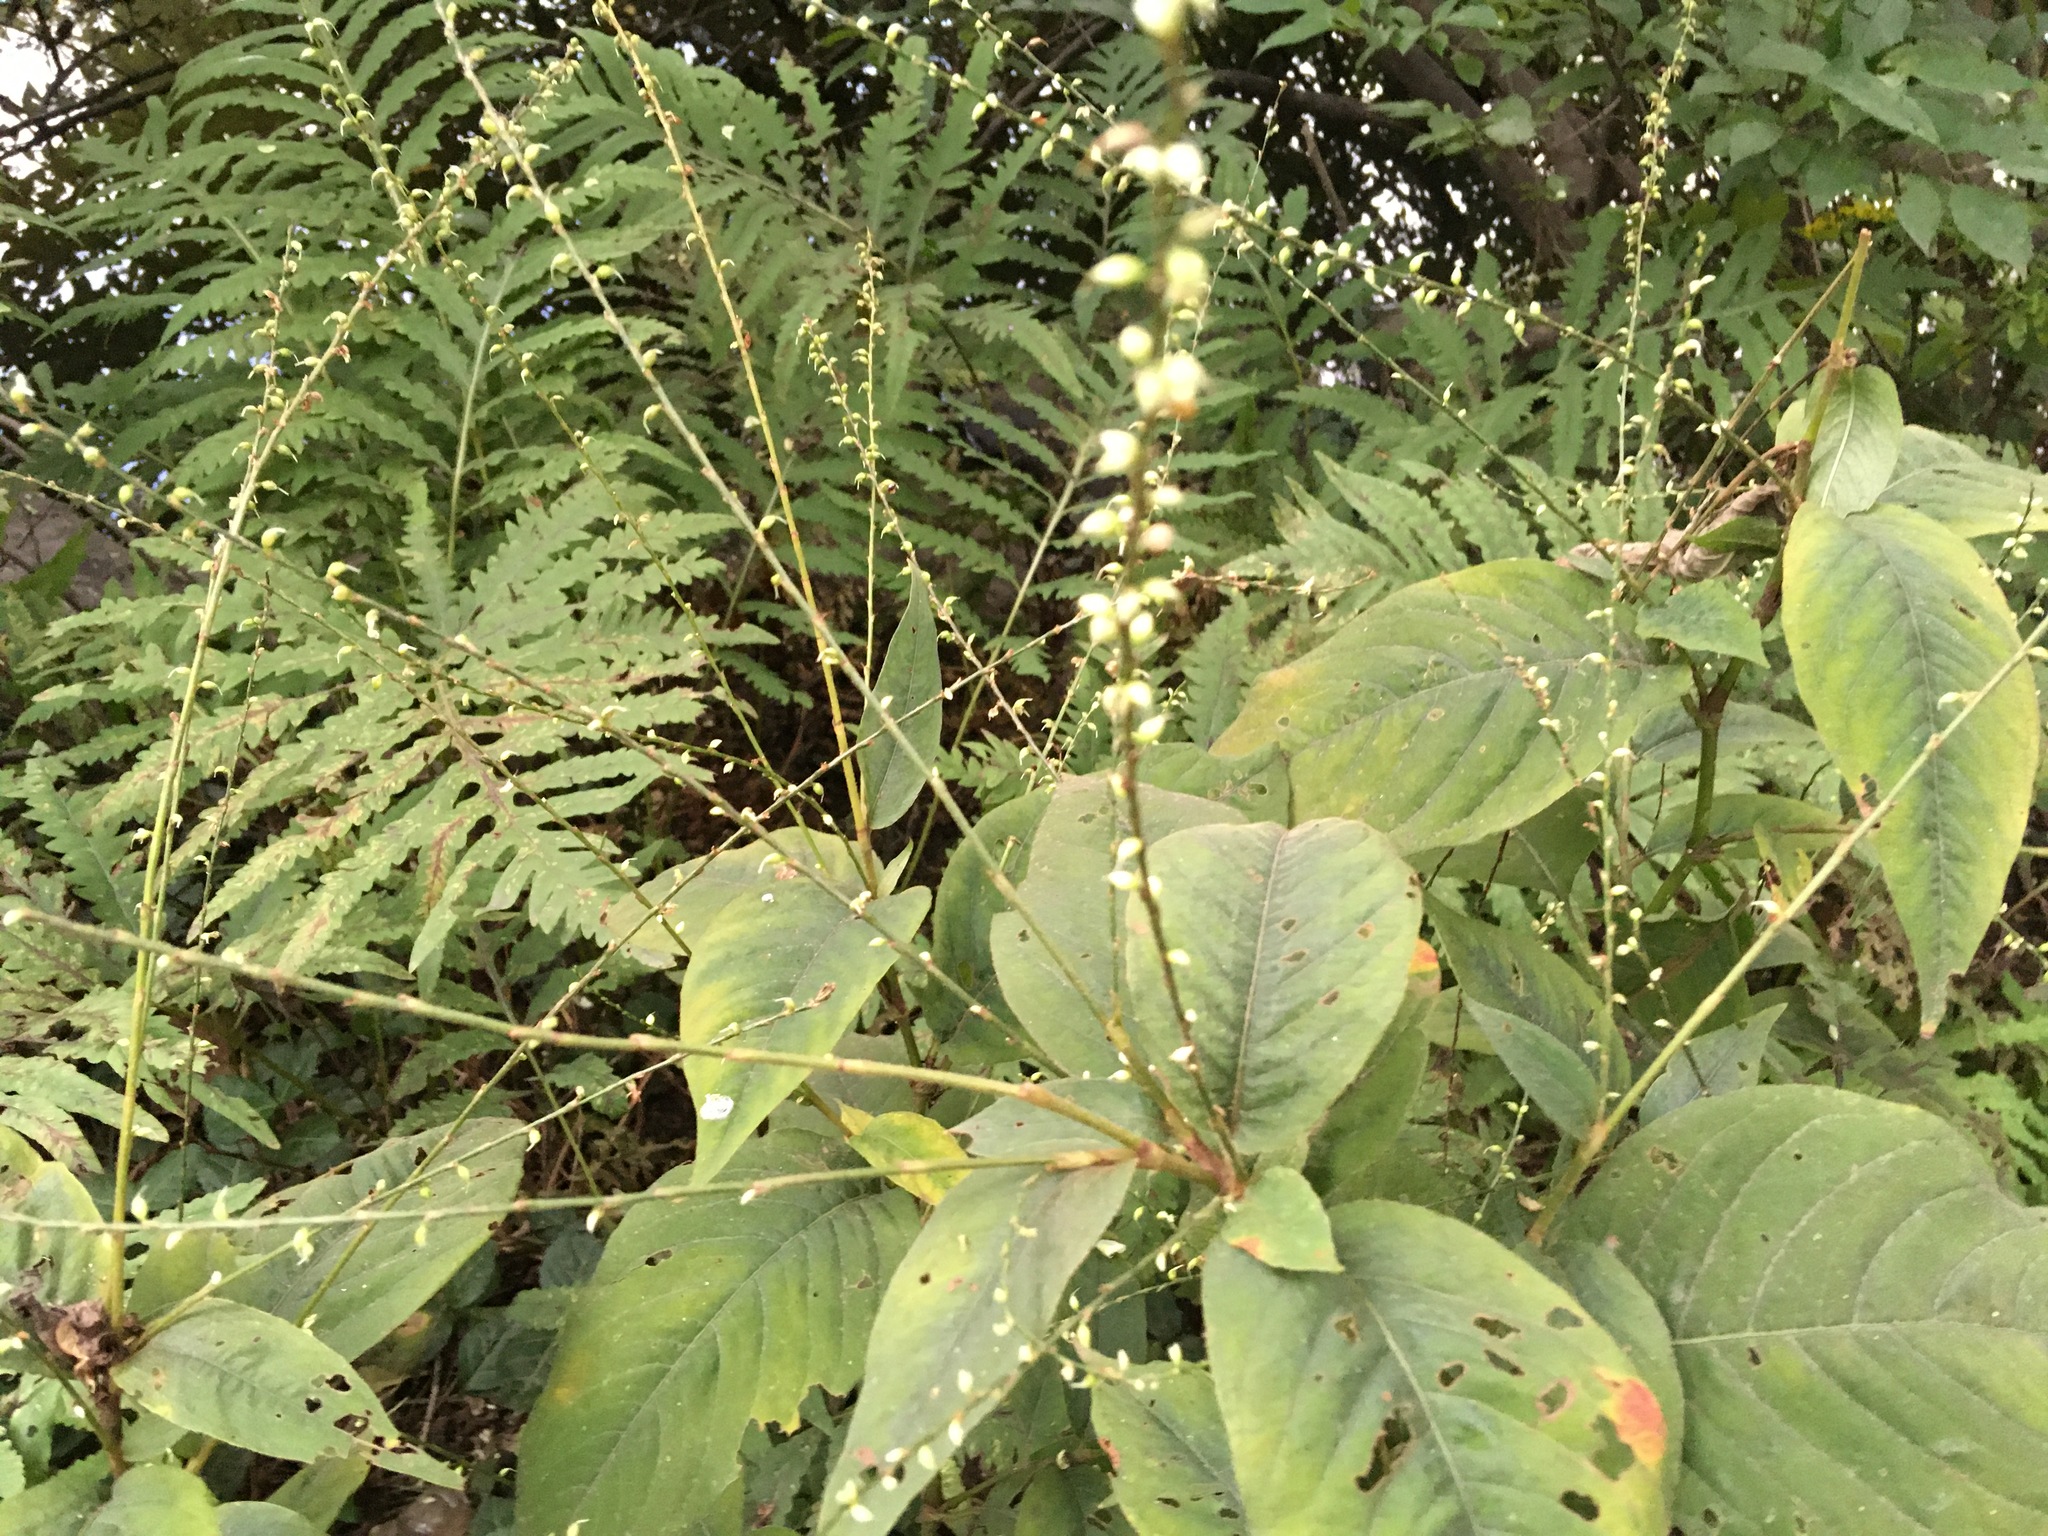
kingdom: Plantae
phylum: Tracheophyta
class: Magnoliopsida
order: Caryophyllales
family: Polygonaceae
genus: Persicaria
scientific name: Persicaria virginiana
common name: Jumpseed
